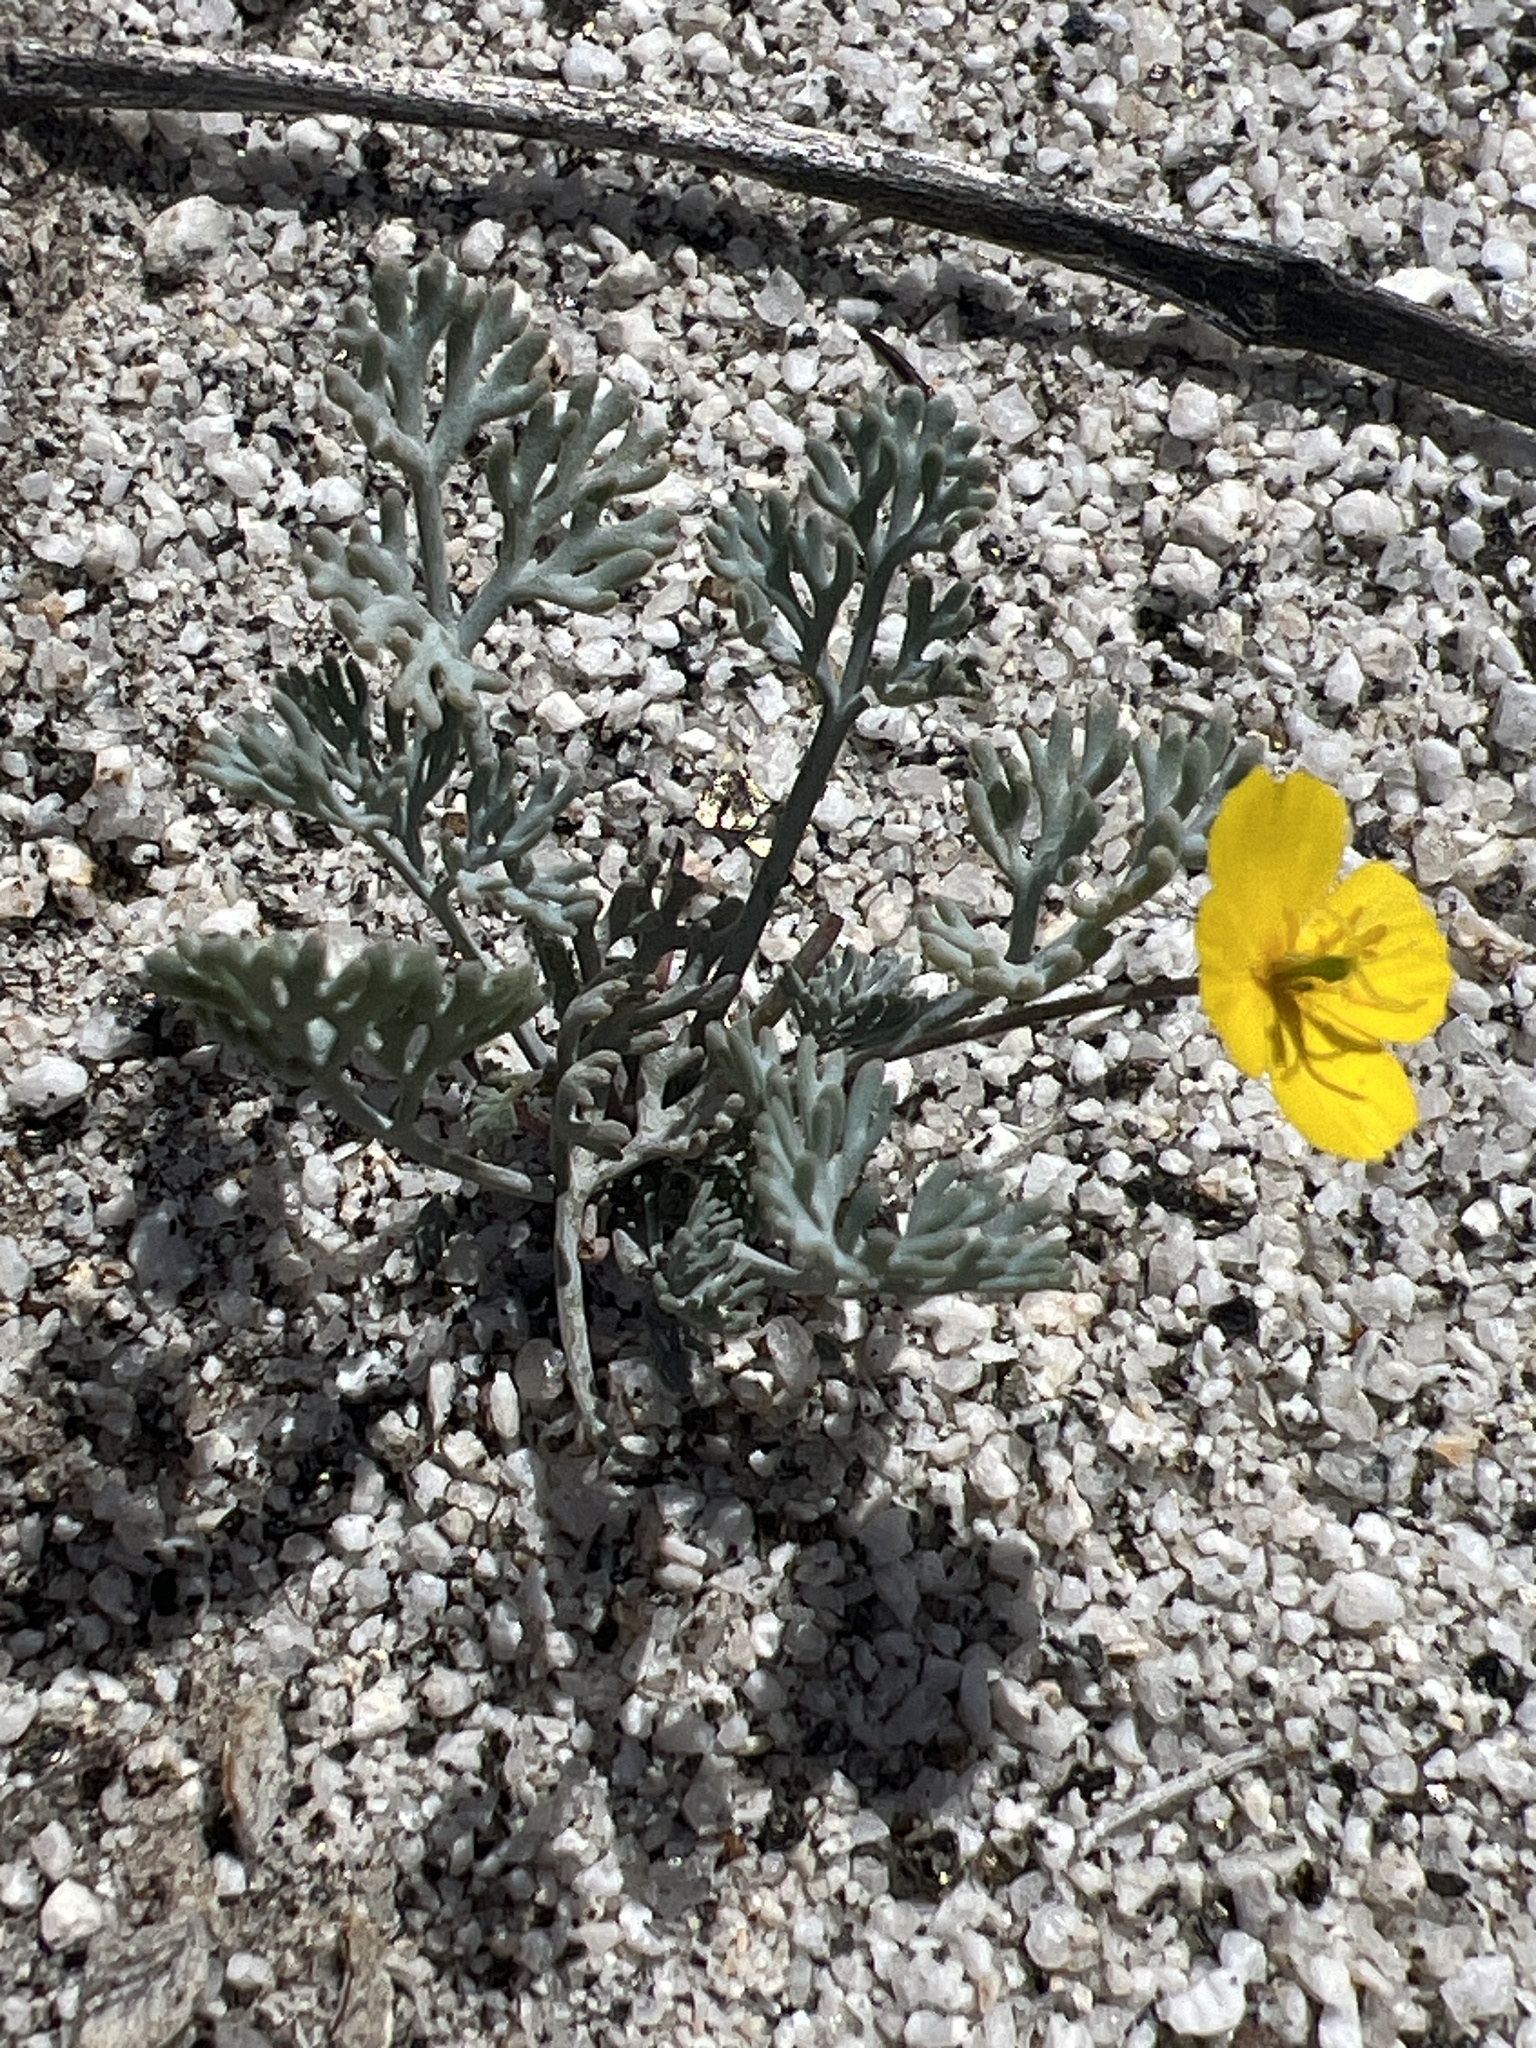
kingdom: Plantae
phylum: Tracheophyta
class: Magnoliopsida
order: Ranunculales
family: Papaveraceae
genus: Eschscholzia
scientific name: Eschscholzia minutiflora
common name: Small-flower california-poppy
